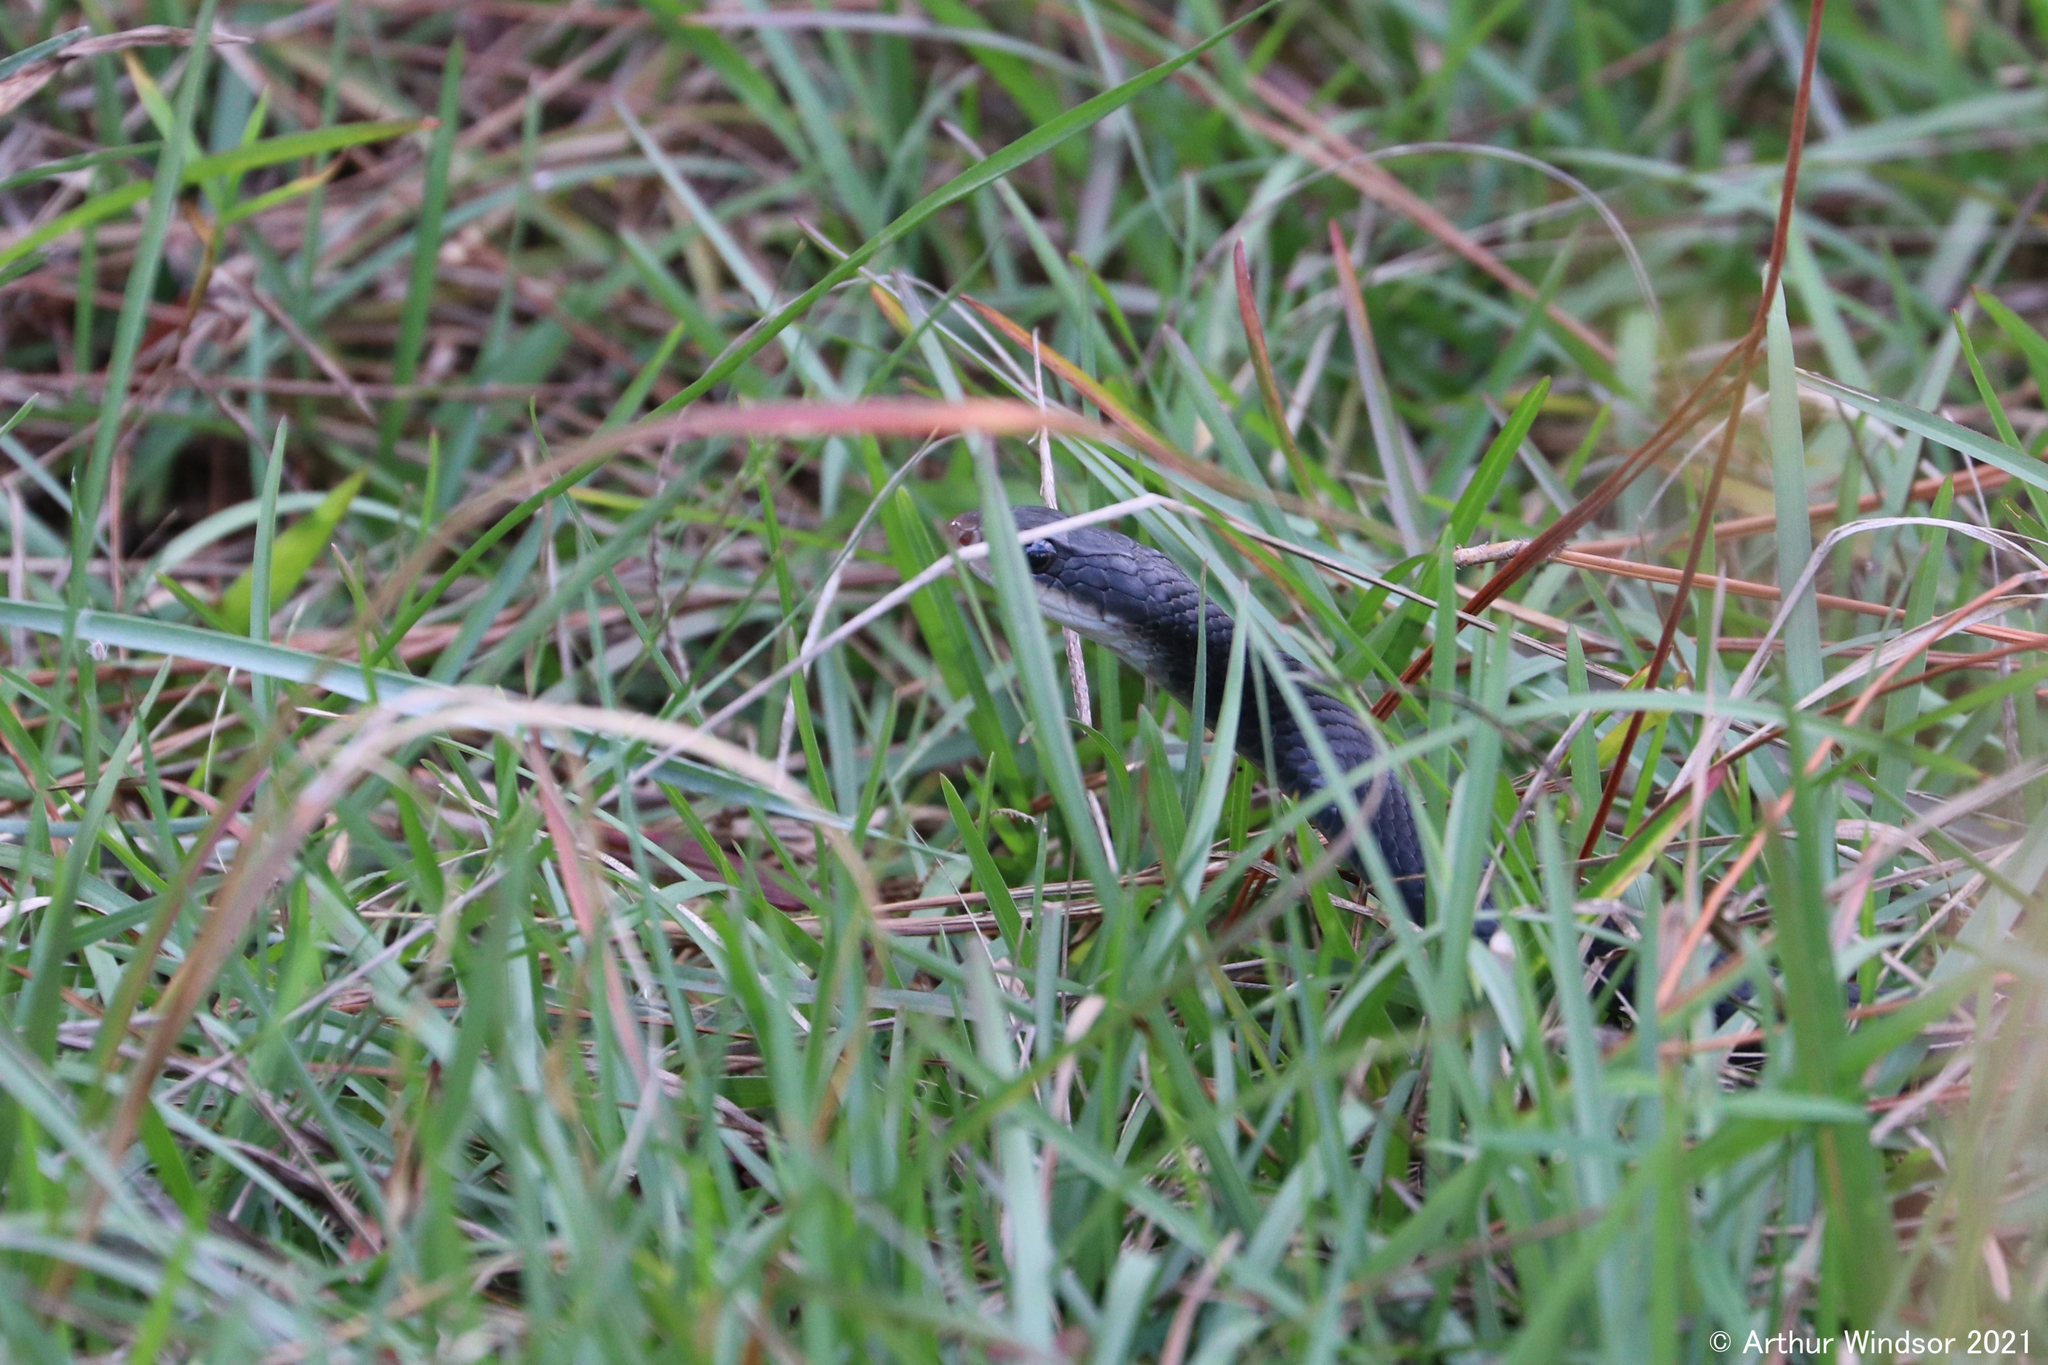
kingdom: Animalia
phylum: Chordata
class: Squamata
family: Colubridae
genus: Coluber
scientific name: Coluber constrictor
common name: Eastern racer
